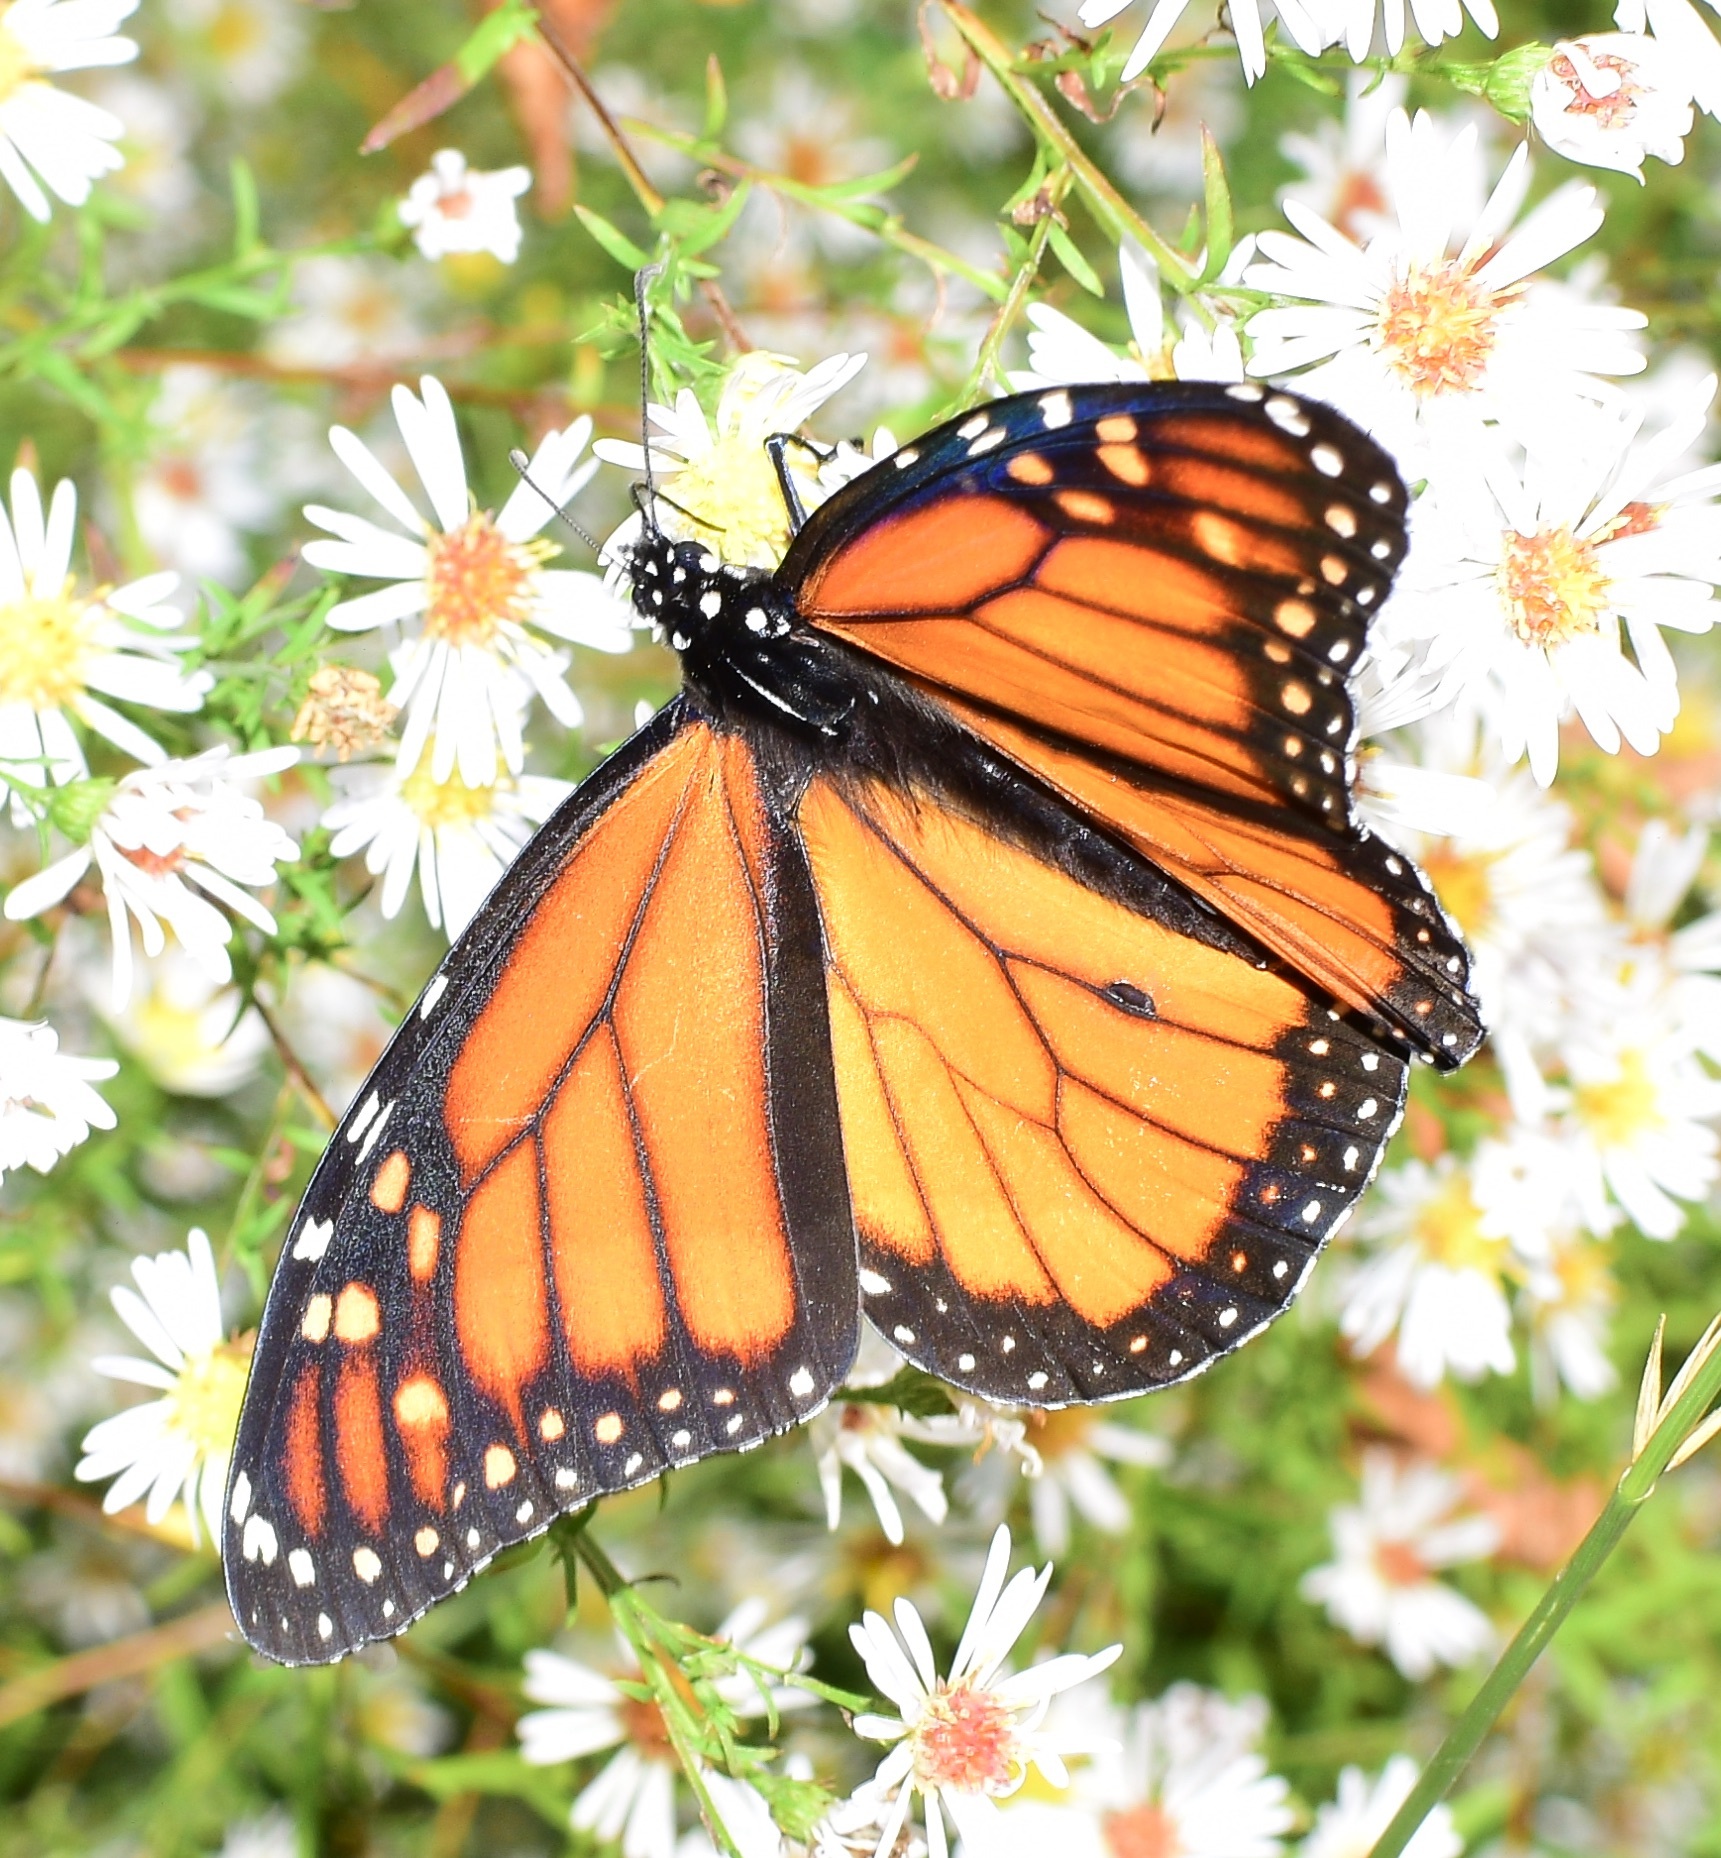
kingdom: Animalia
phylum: Arthropoda
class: Insecta
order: Lepidoptera
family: Nymphalidae
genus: Danaus
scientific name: Danaus plexippus
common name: Monarch
